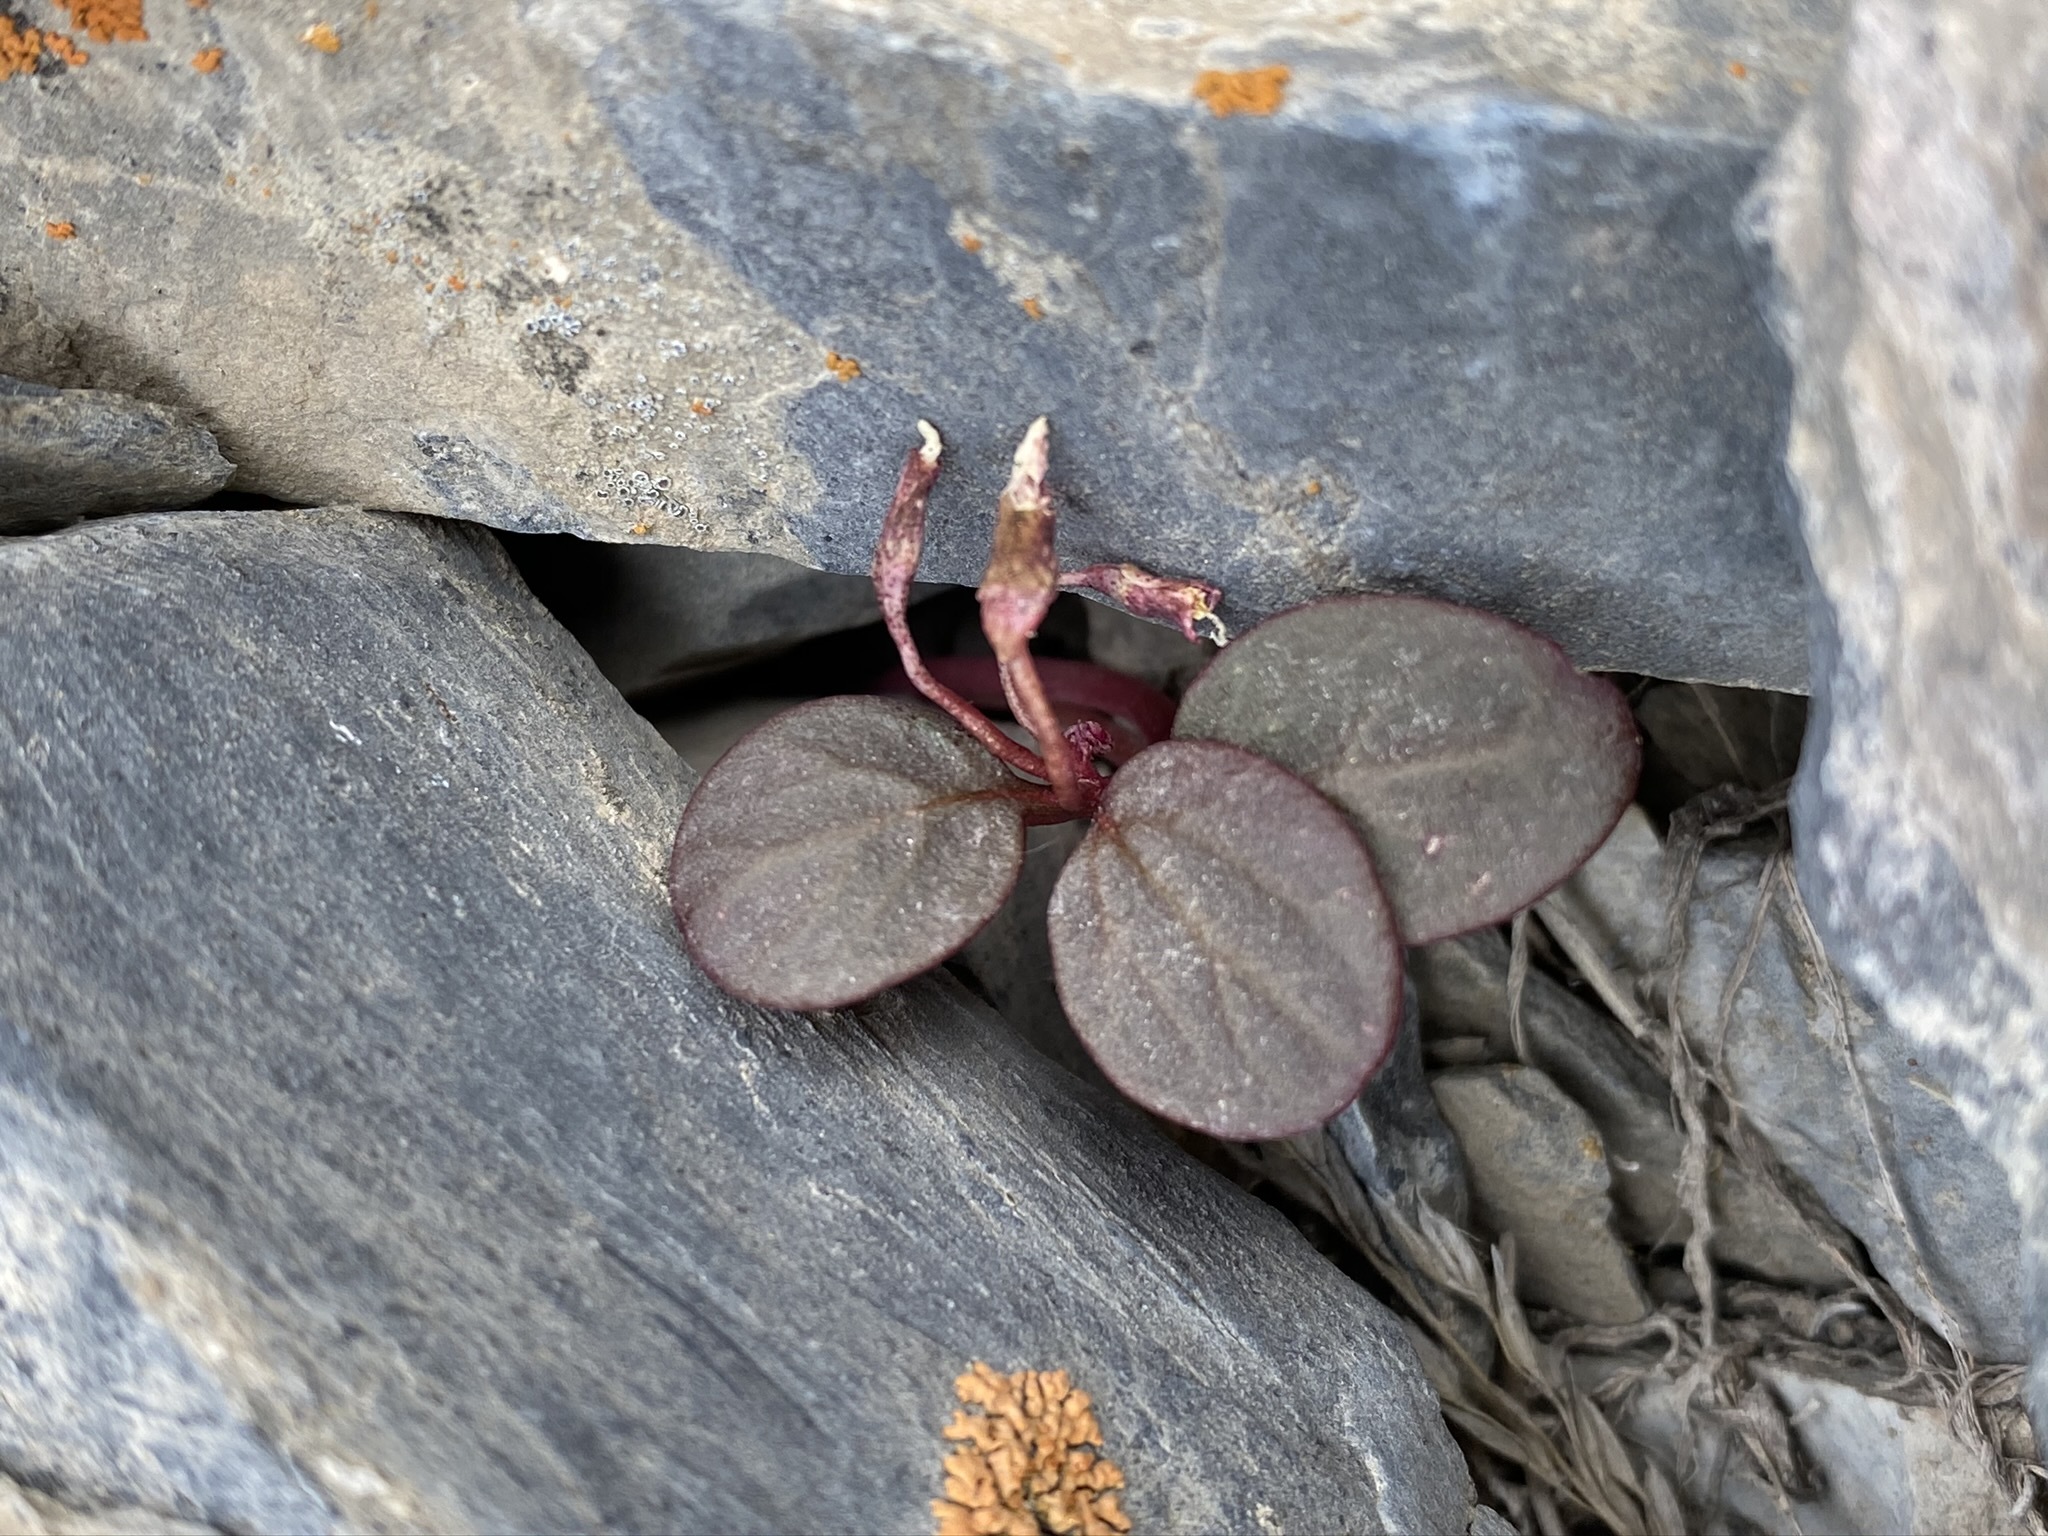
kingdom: Plantae
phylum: Tracheophyta
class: Magnoliopsida
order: Caryophyllales
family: Montiaceae
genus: Claytonia
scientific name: Claytonia umbellata
